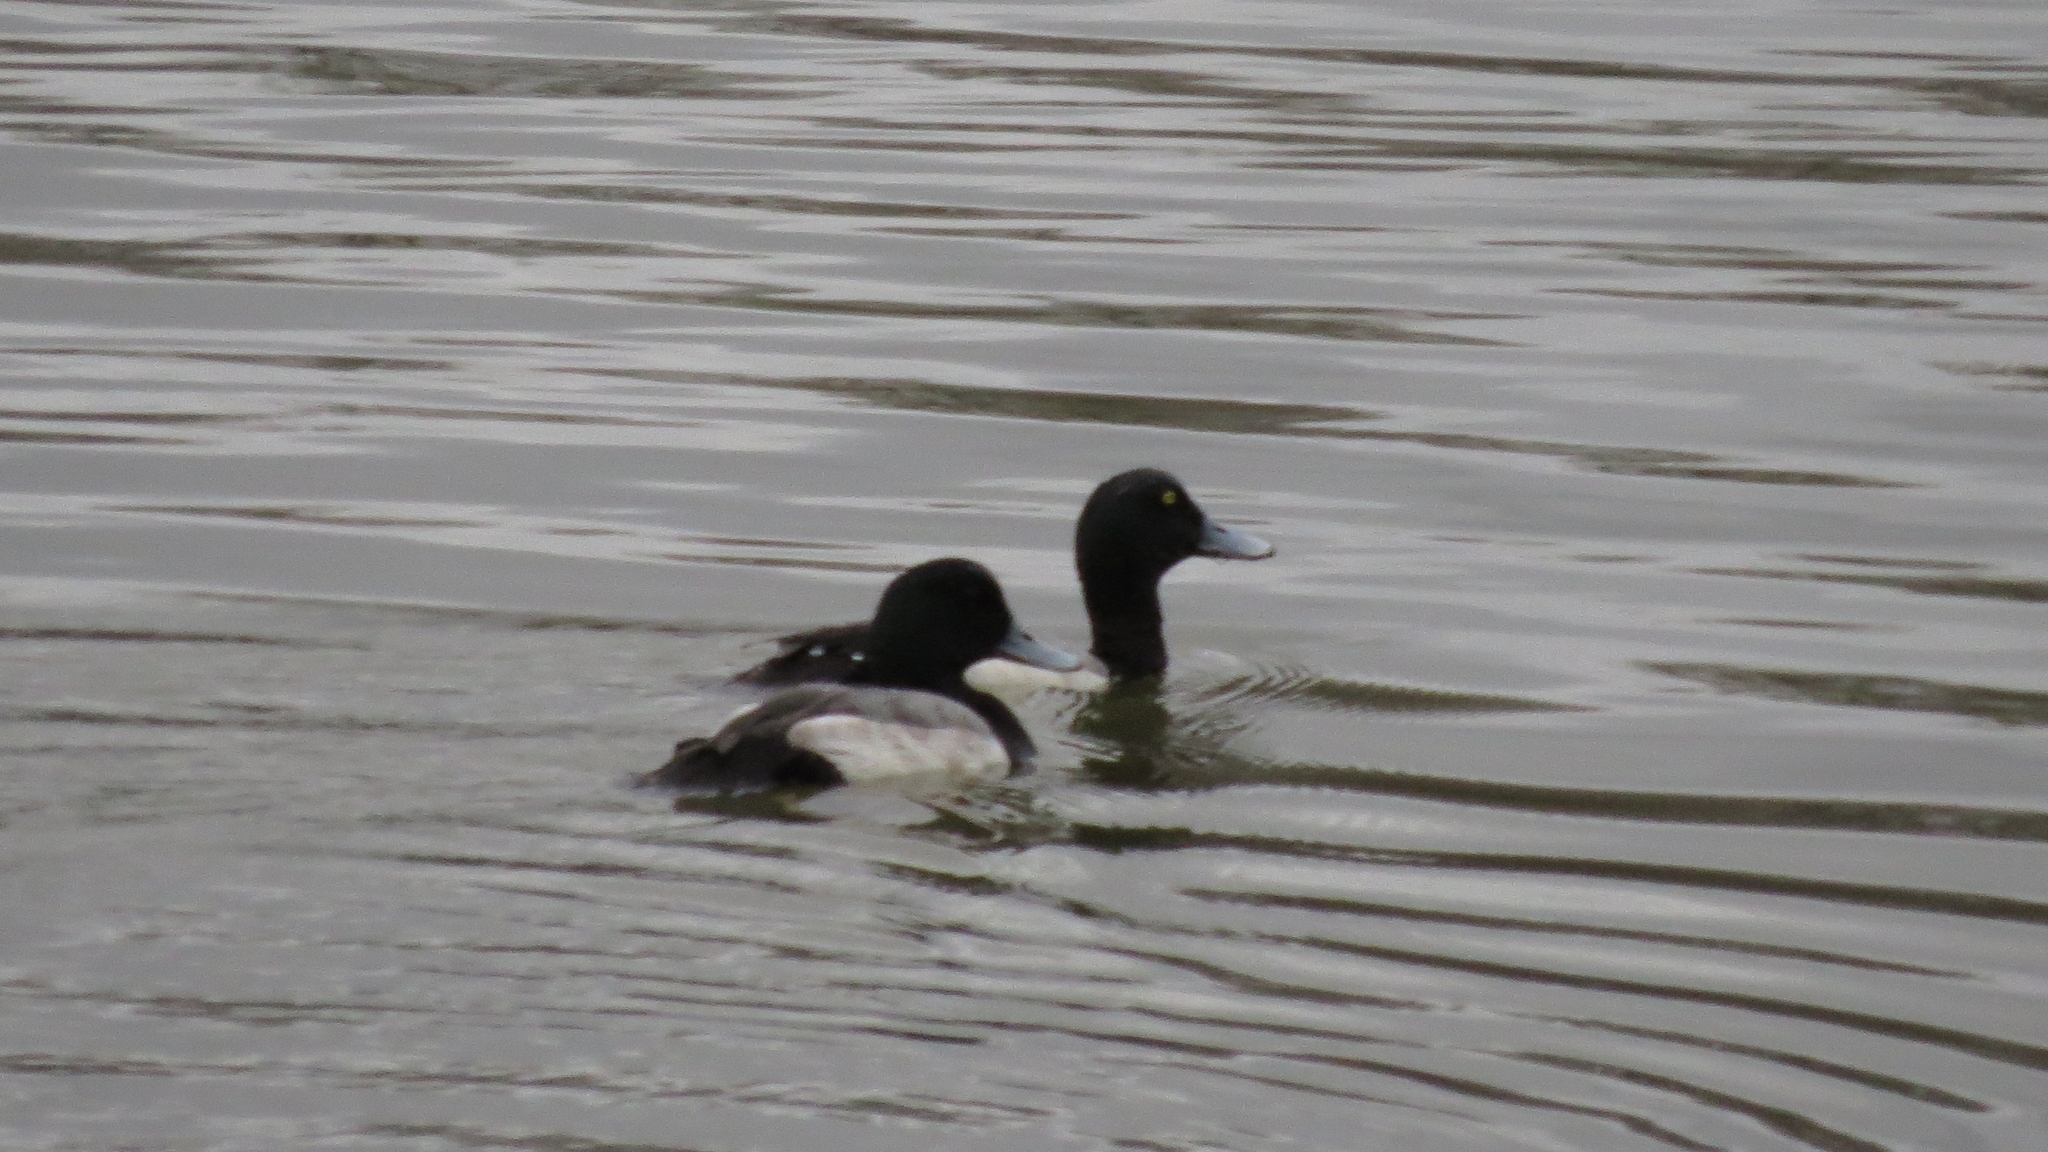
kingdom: Animalia
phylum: Chordata
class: Aves
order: Anseriformes
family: Anatidae
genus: Aythya
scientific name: Aythya marila
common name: Greater scaup
